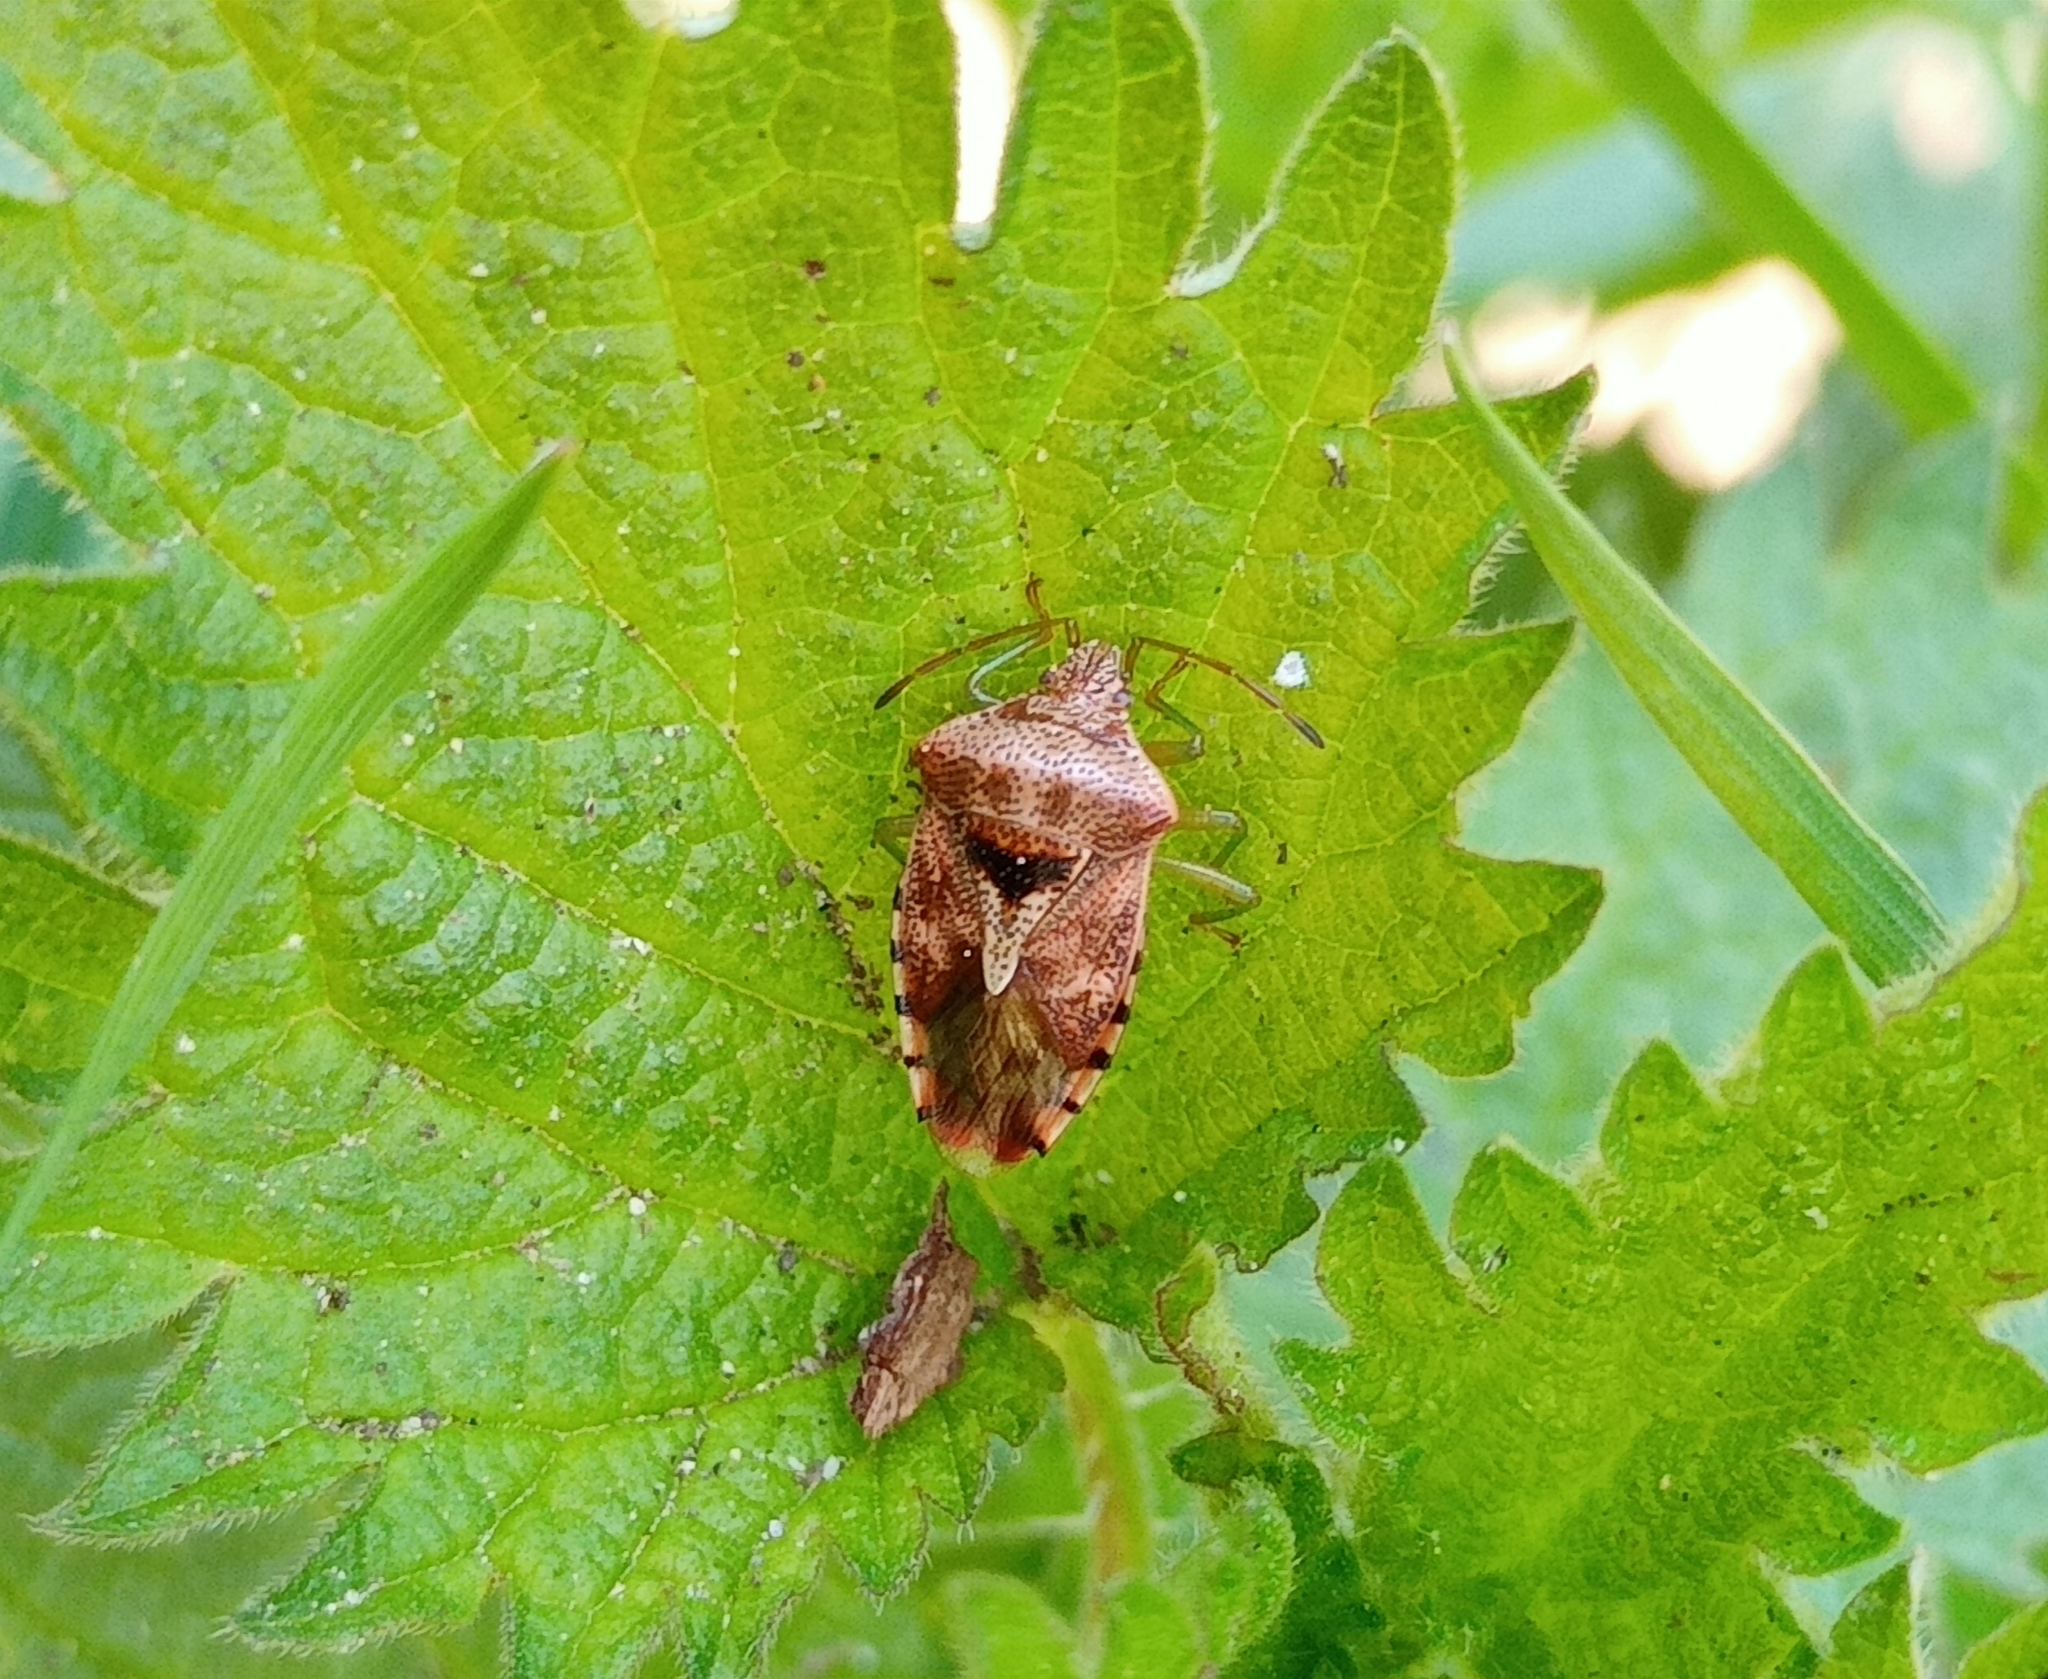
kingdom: Animalia
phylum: Arthropoda
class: Insecta
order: Hemiptera
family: Acanthosomatidae
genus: Elasmucha
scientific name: Elasmucha grisea
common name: Parent bug
